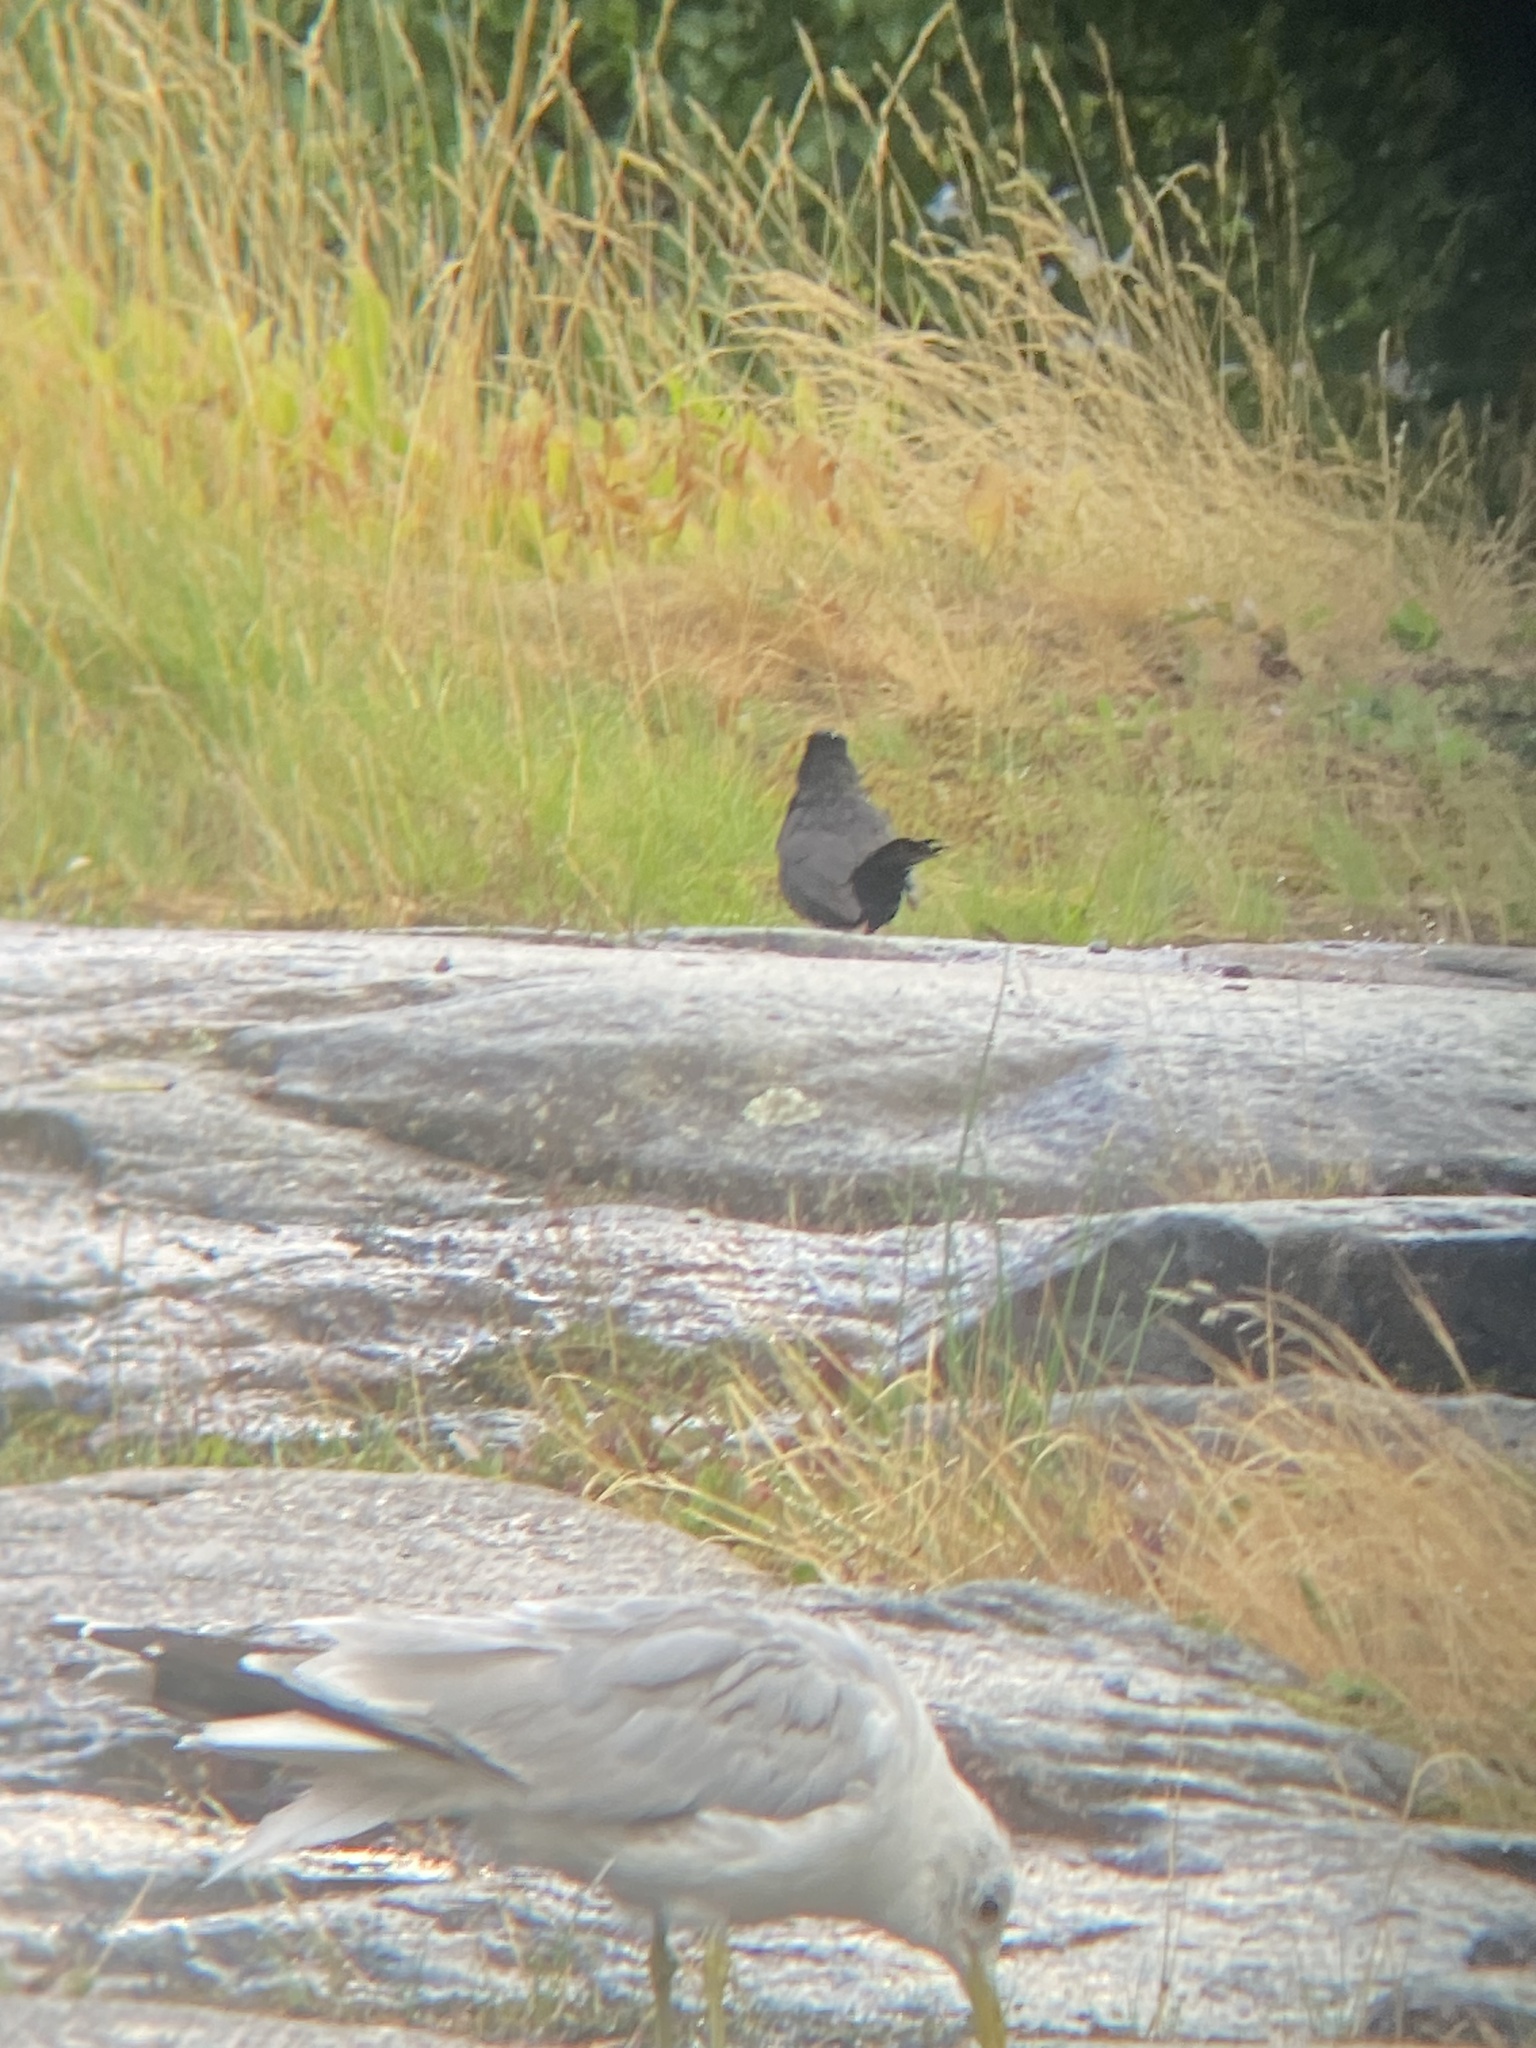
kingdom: Animalia
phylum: Chordata
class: Aves
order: Passeriformes
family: Turdidae
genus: Turdus
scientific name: Turdus merula
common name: Common blackbird
